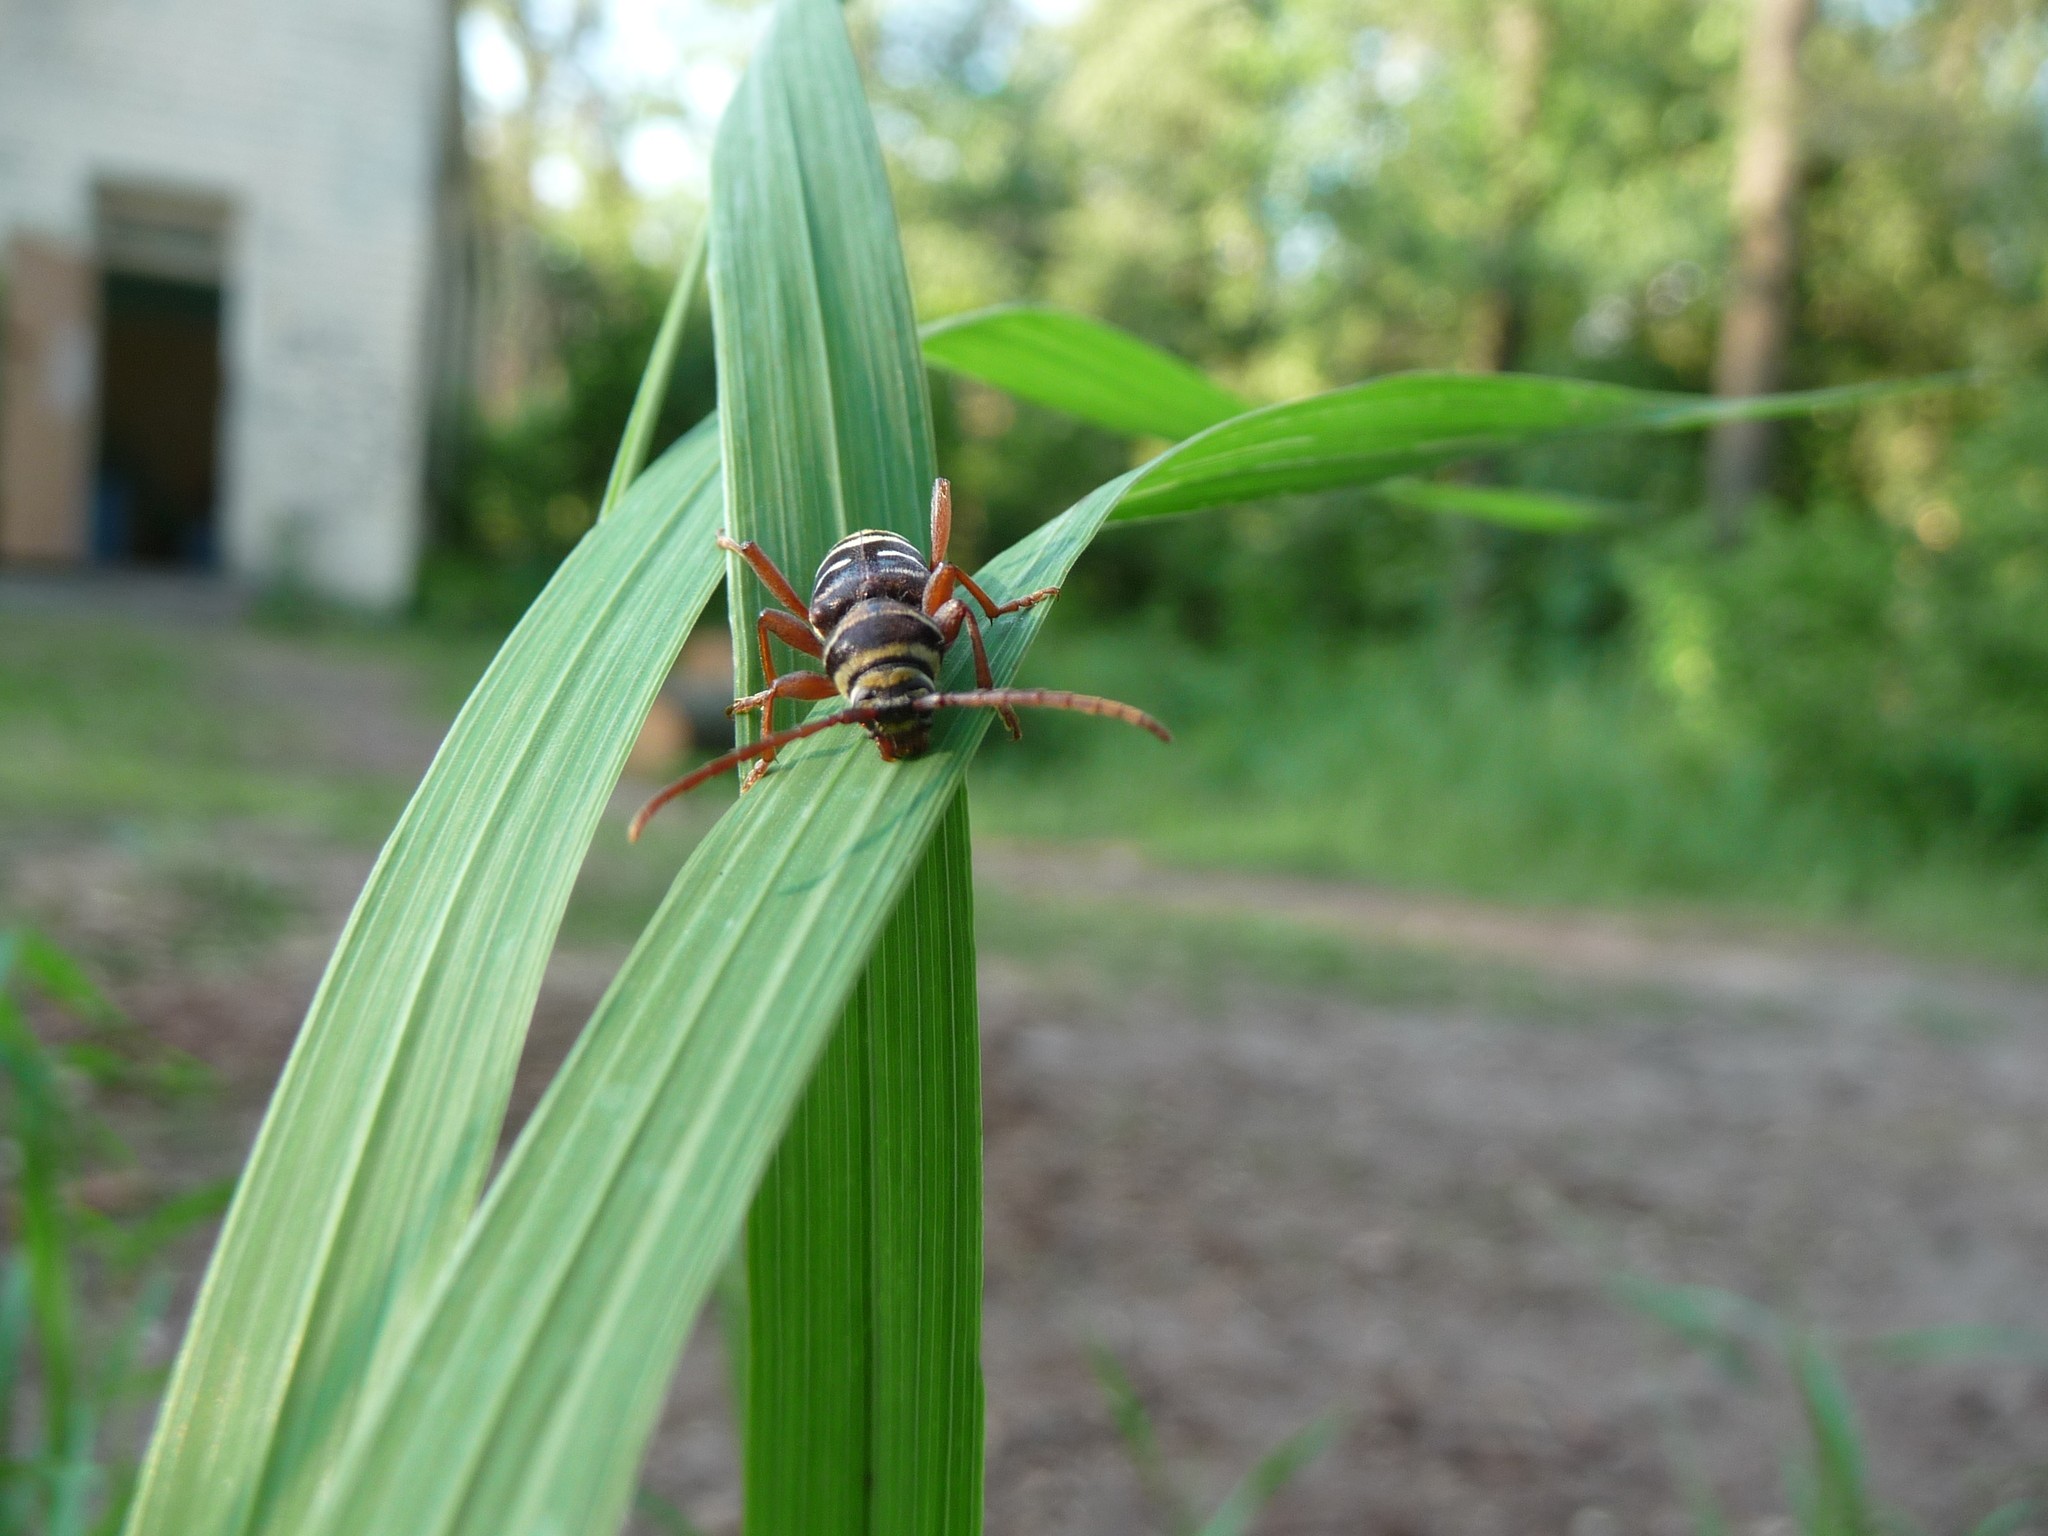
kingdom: Animalia
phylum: Arthropoda
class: Insecta
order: Coleoptera
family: Cerambycidae
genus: Plagionotus
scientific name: Plagionotus detritus
